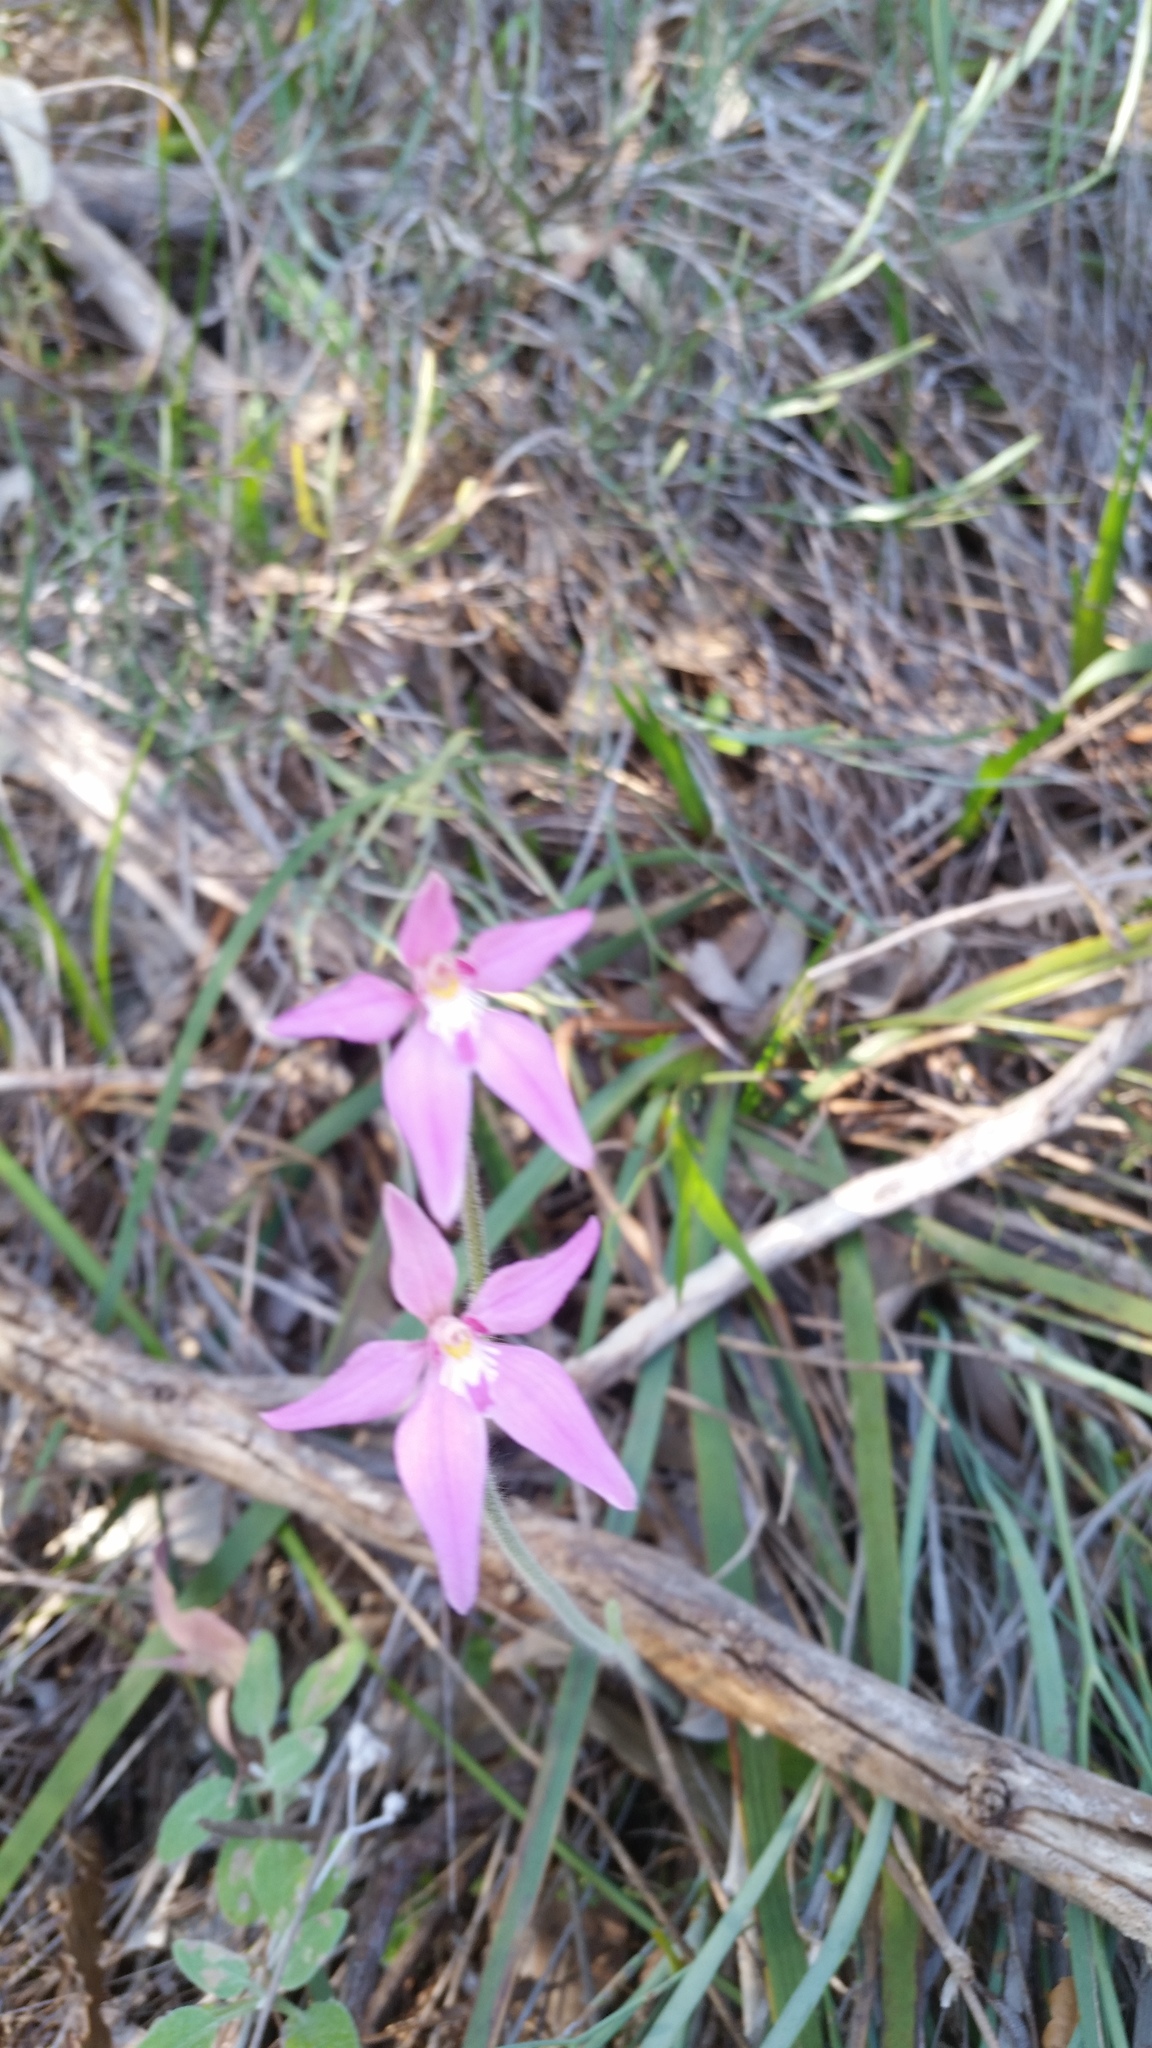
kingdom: Plantae
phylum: Tracheophyta
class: Liliopsida
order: Asparagales
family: Orchidaceae
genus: Caladenia
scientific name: Caladenia latifolia
